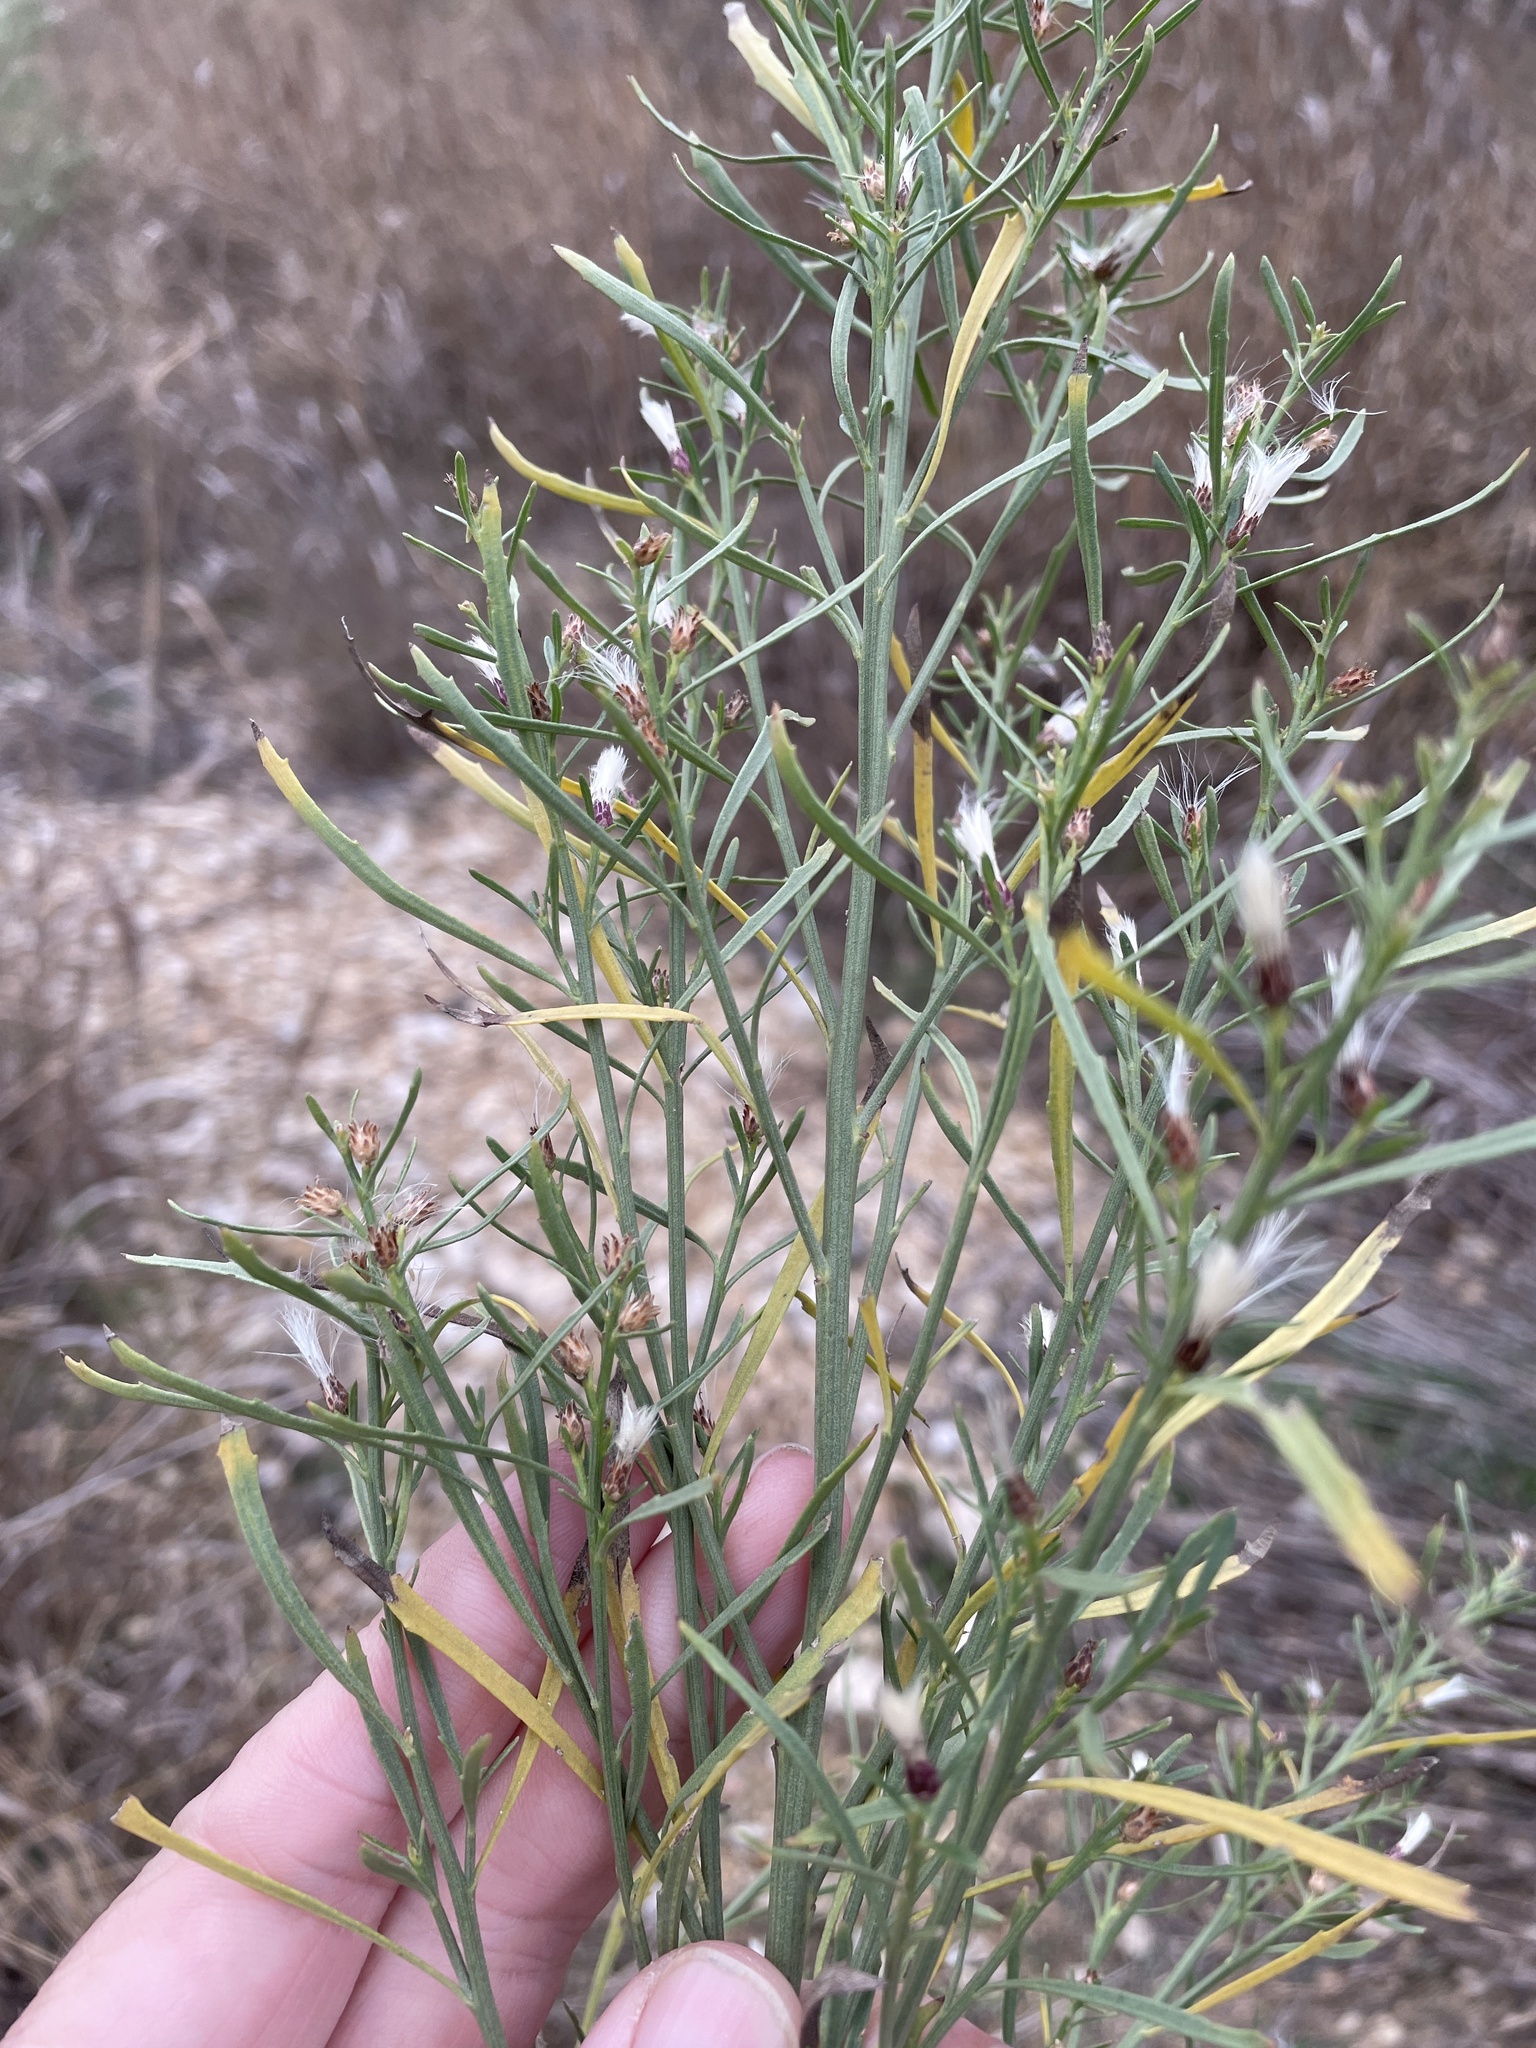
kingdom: Plantae
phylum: Tracheophyta
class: Magnoliopsida
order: Asterales
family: Asteraceae
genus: Baccharis
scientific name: Baccharis neglecta
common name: Roosevelt-weed
